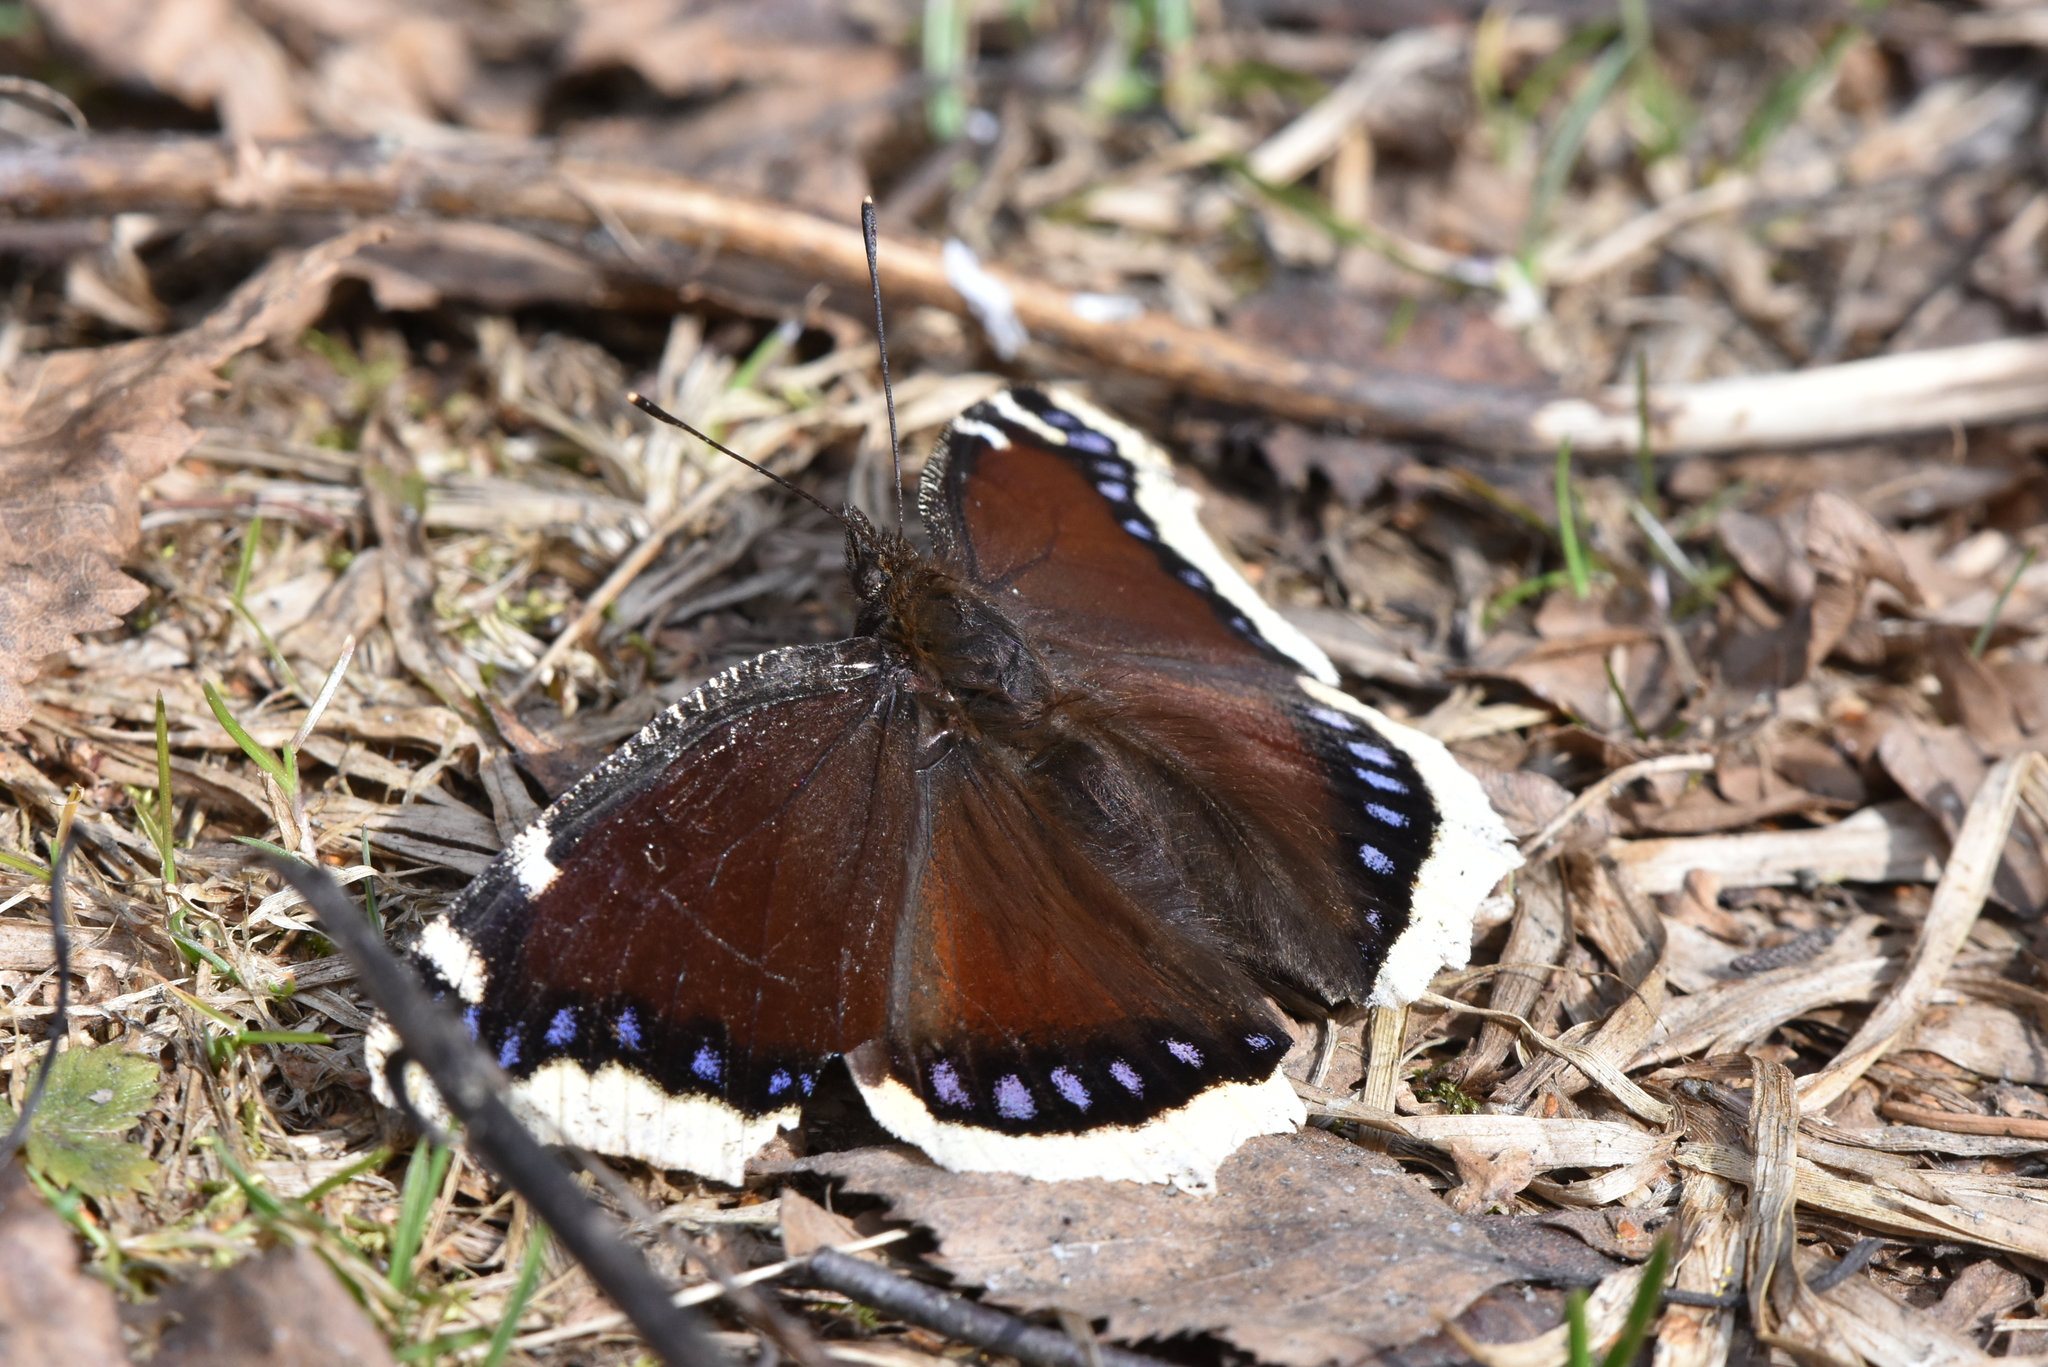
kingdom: Animalia
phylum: Arthropoda
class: Insecta
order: Lepidoptera
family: Nymphalidae
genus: Nymphalis
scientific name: Nymphalis antiopa
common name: Camberwell beauty
